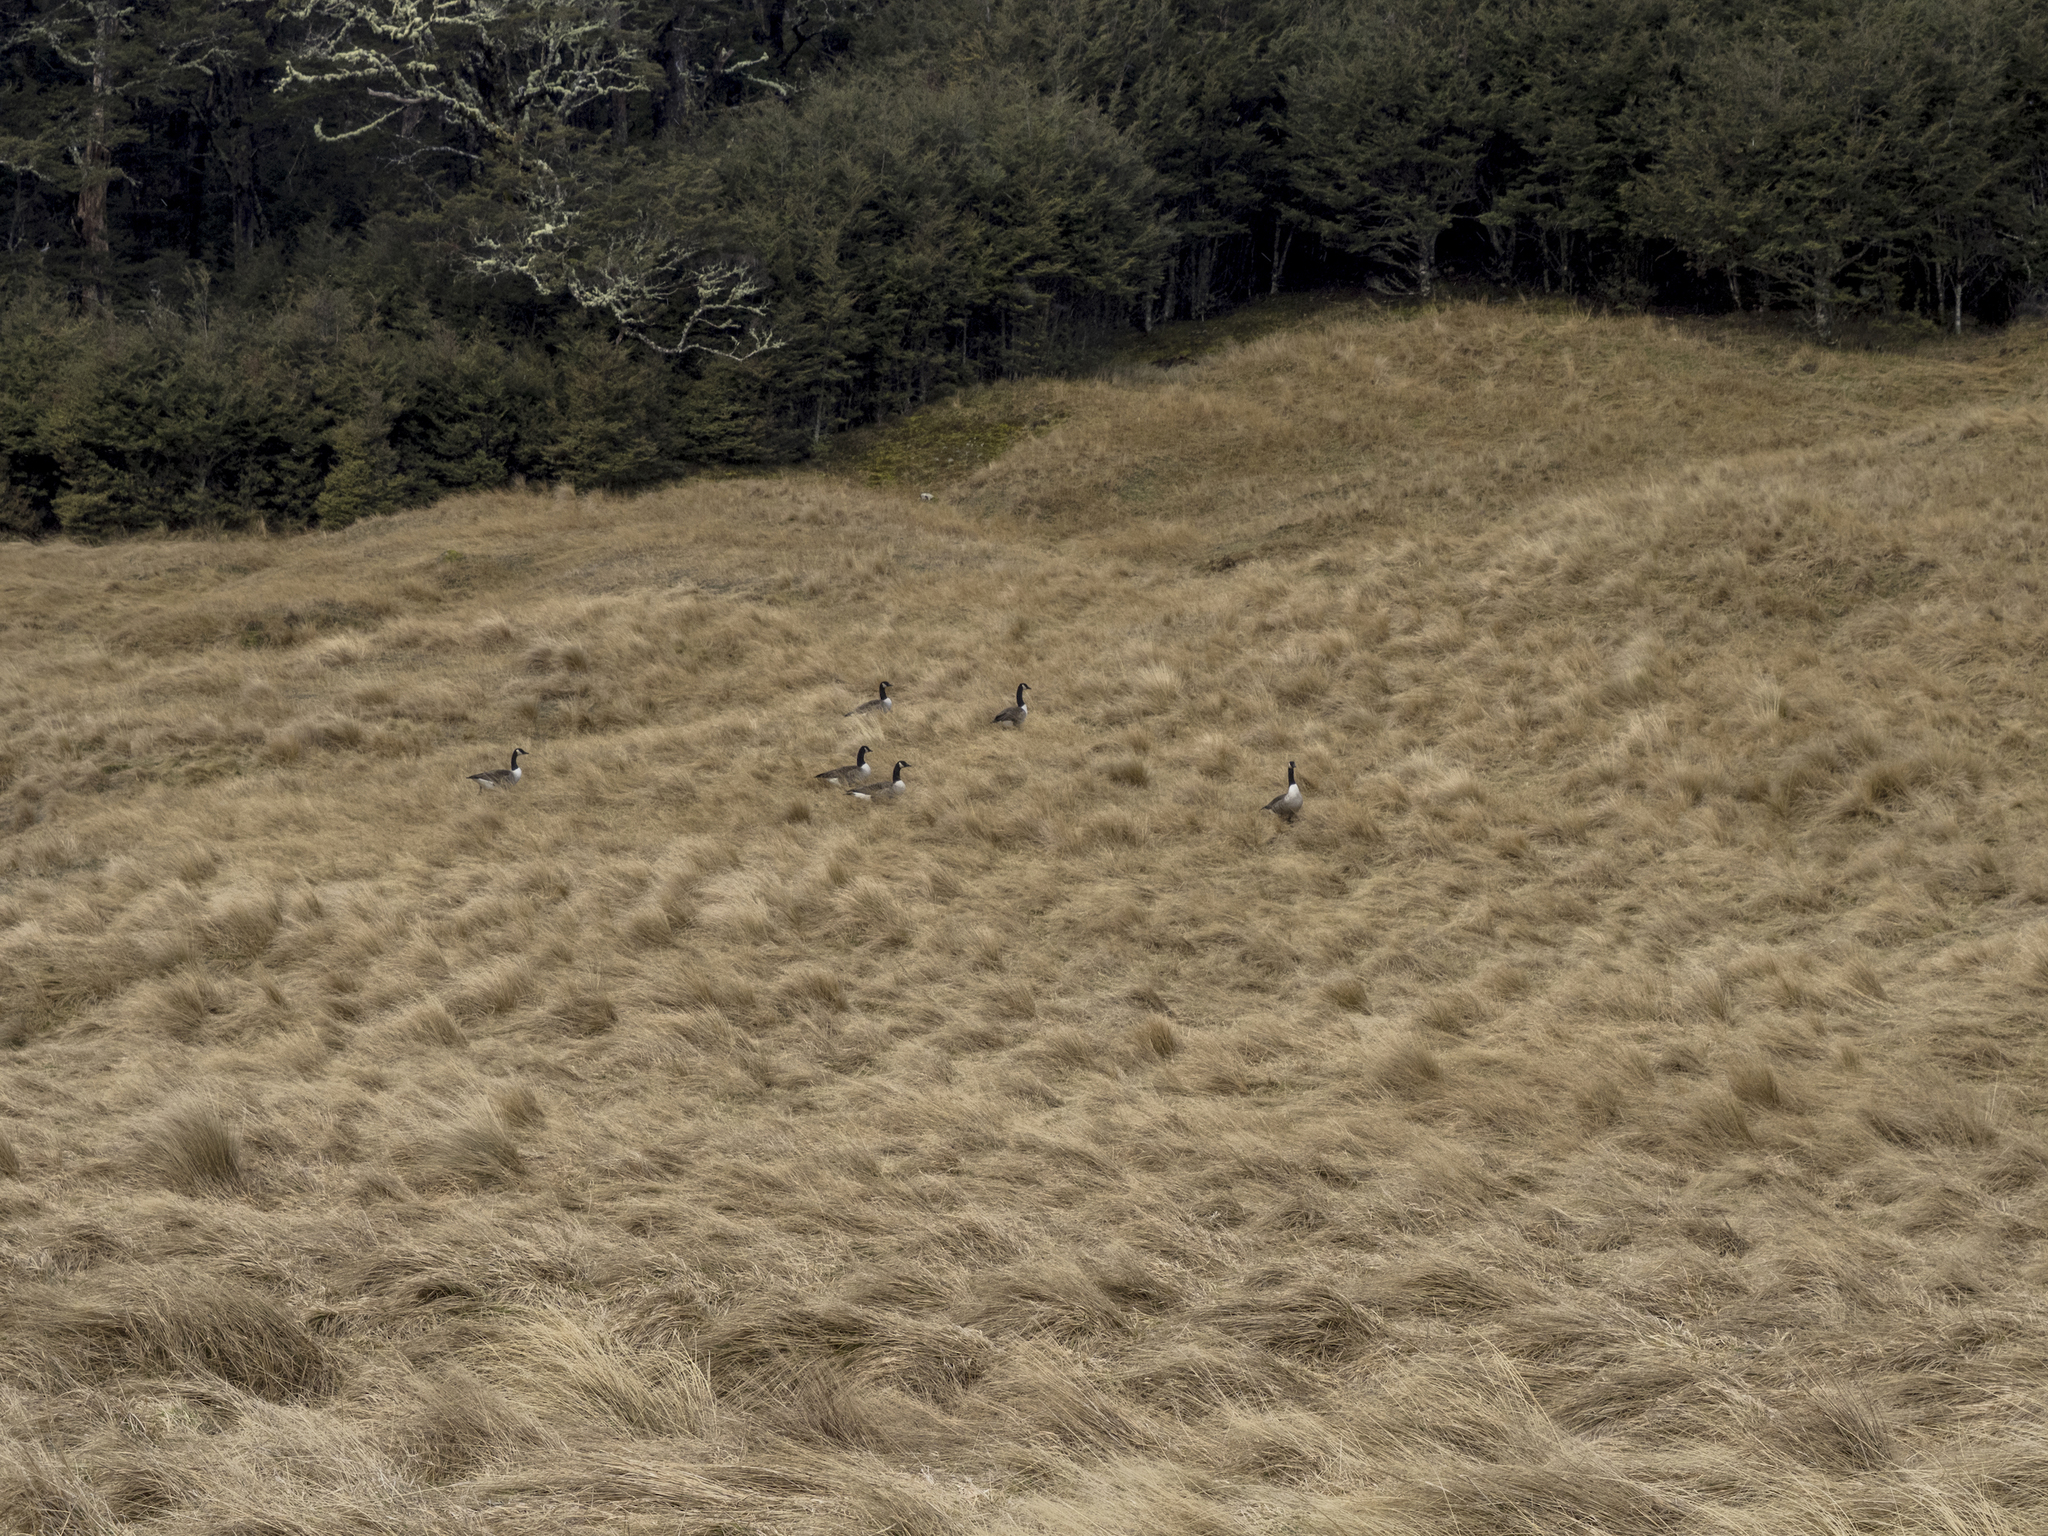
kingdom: Animalia
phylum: Chordata
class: Aves
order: Anseriformes
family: Anatidae
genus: Branta
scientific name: Branta canadensis
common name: Canada goose
